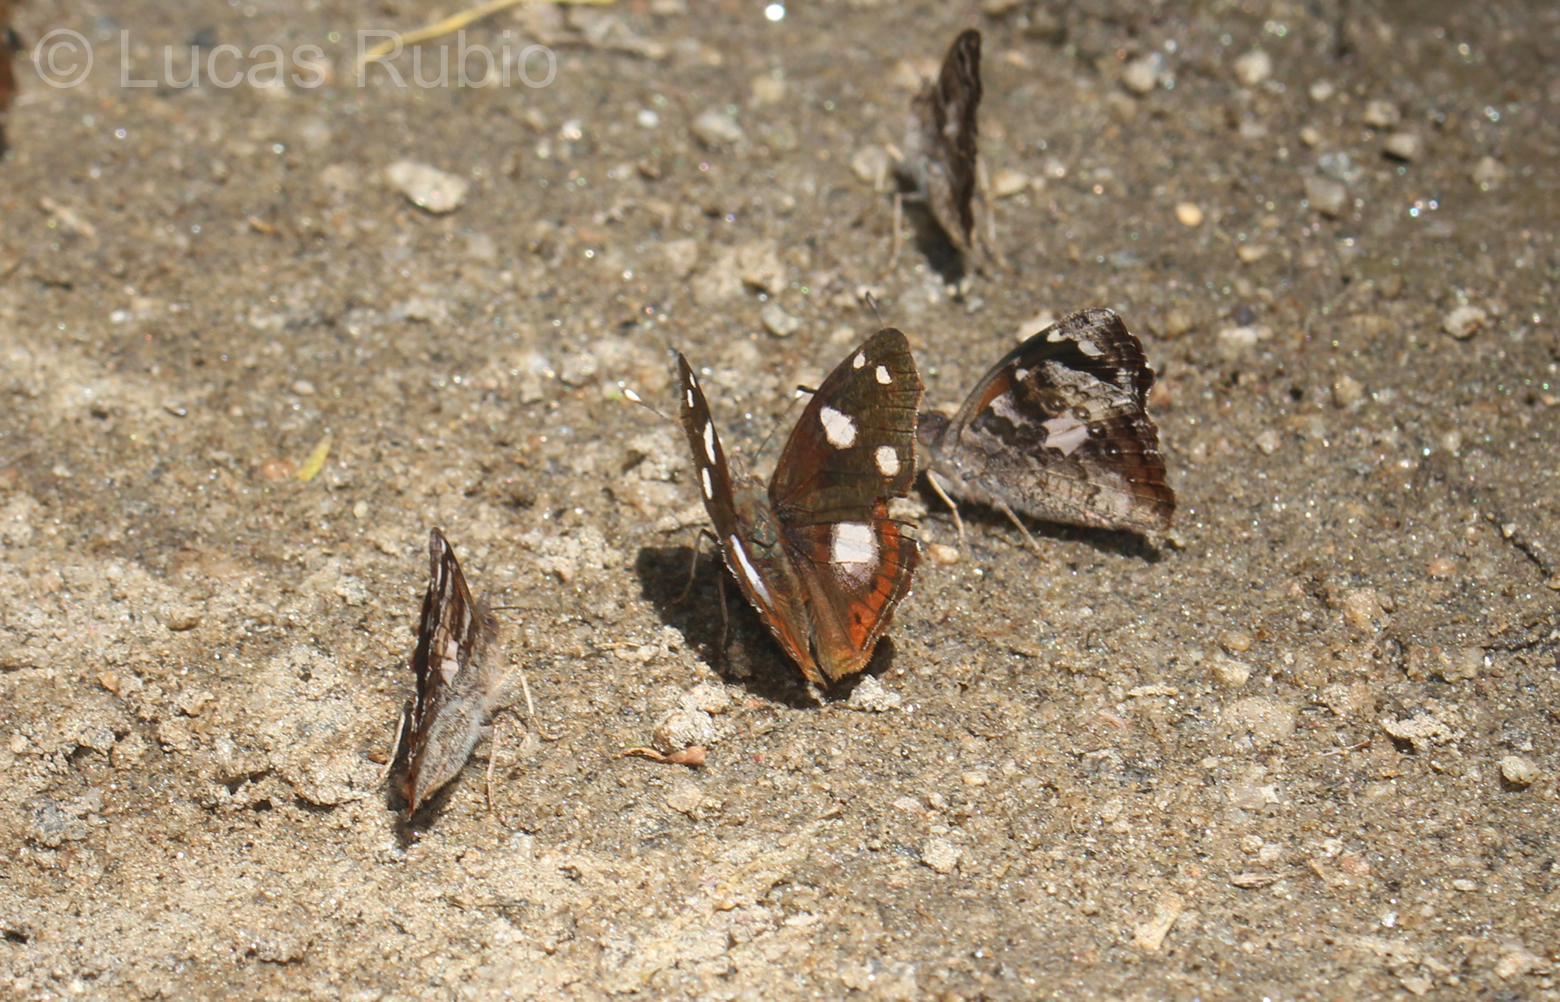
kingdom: Animalia
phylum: Arthropoda
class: Insecta
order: Lepidoptera
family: Nymphalidae
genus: Cybdelis
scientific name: Cybdelis
